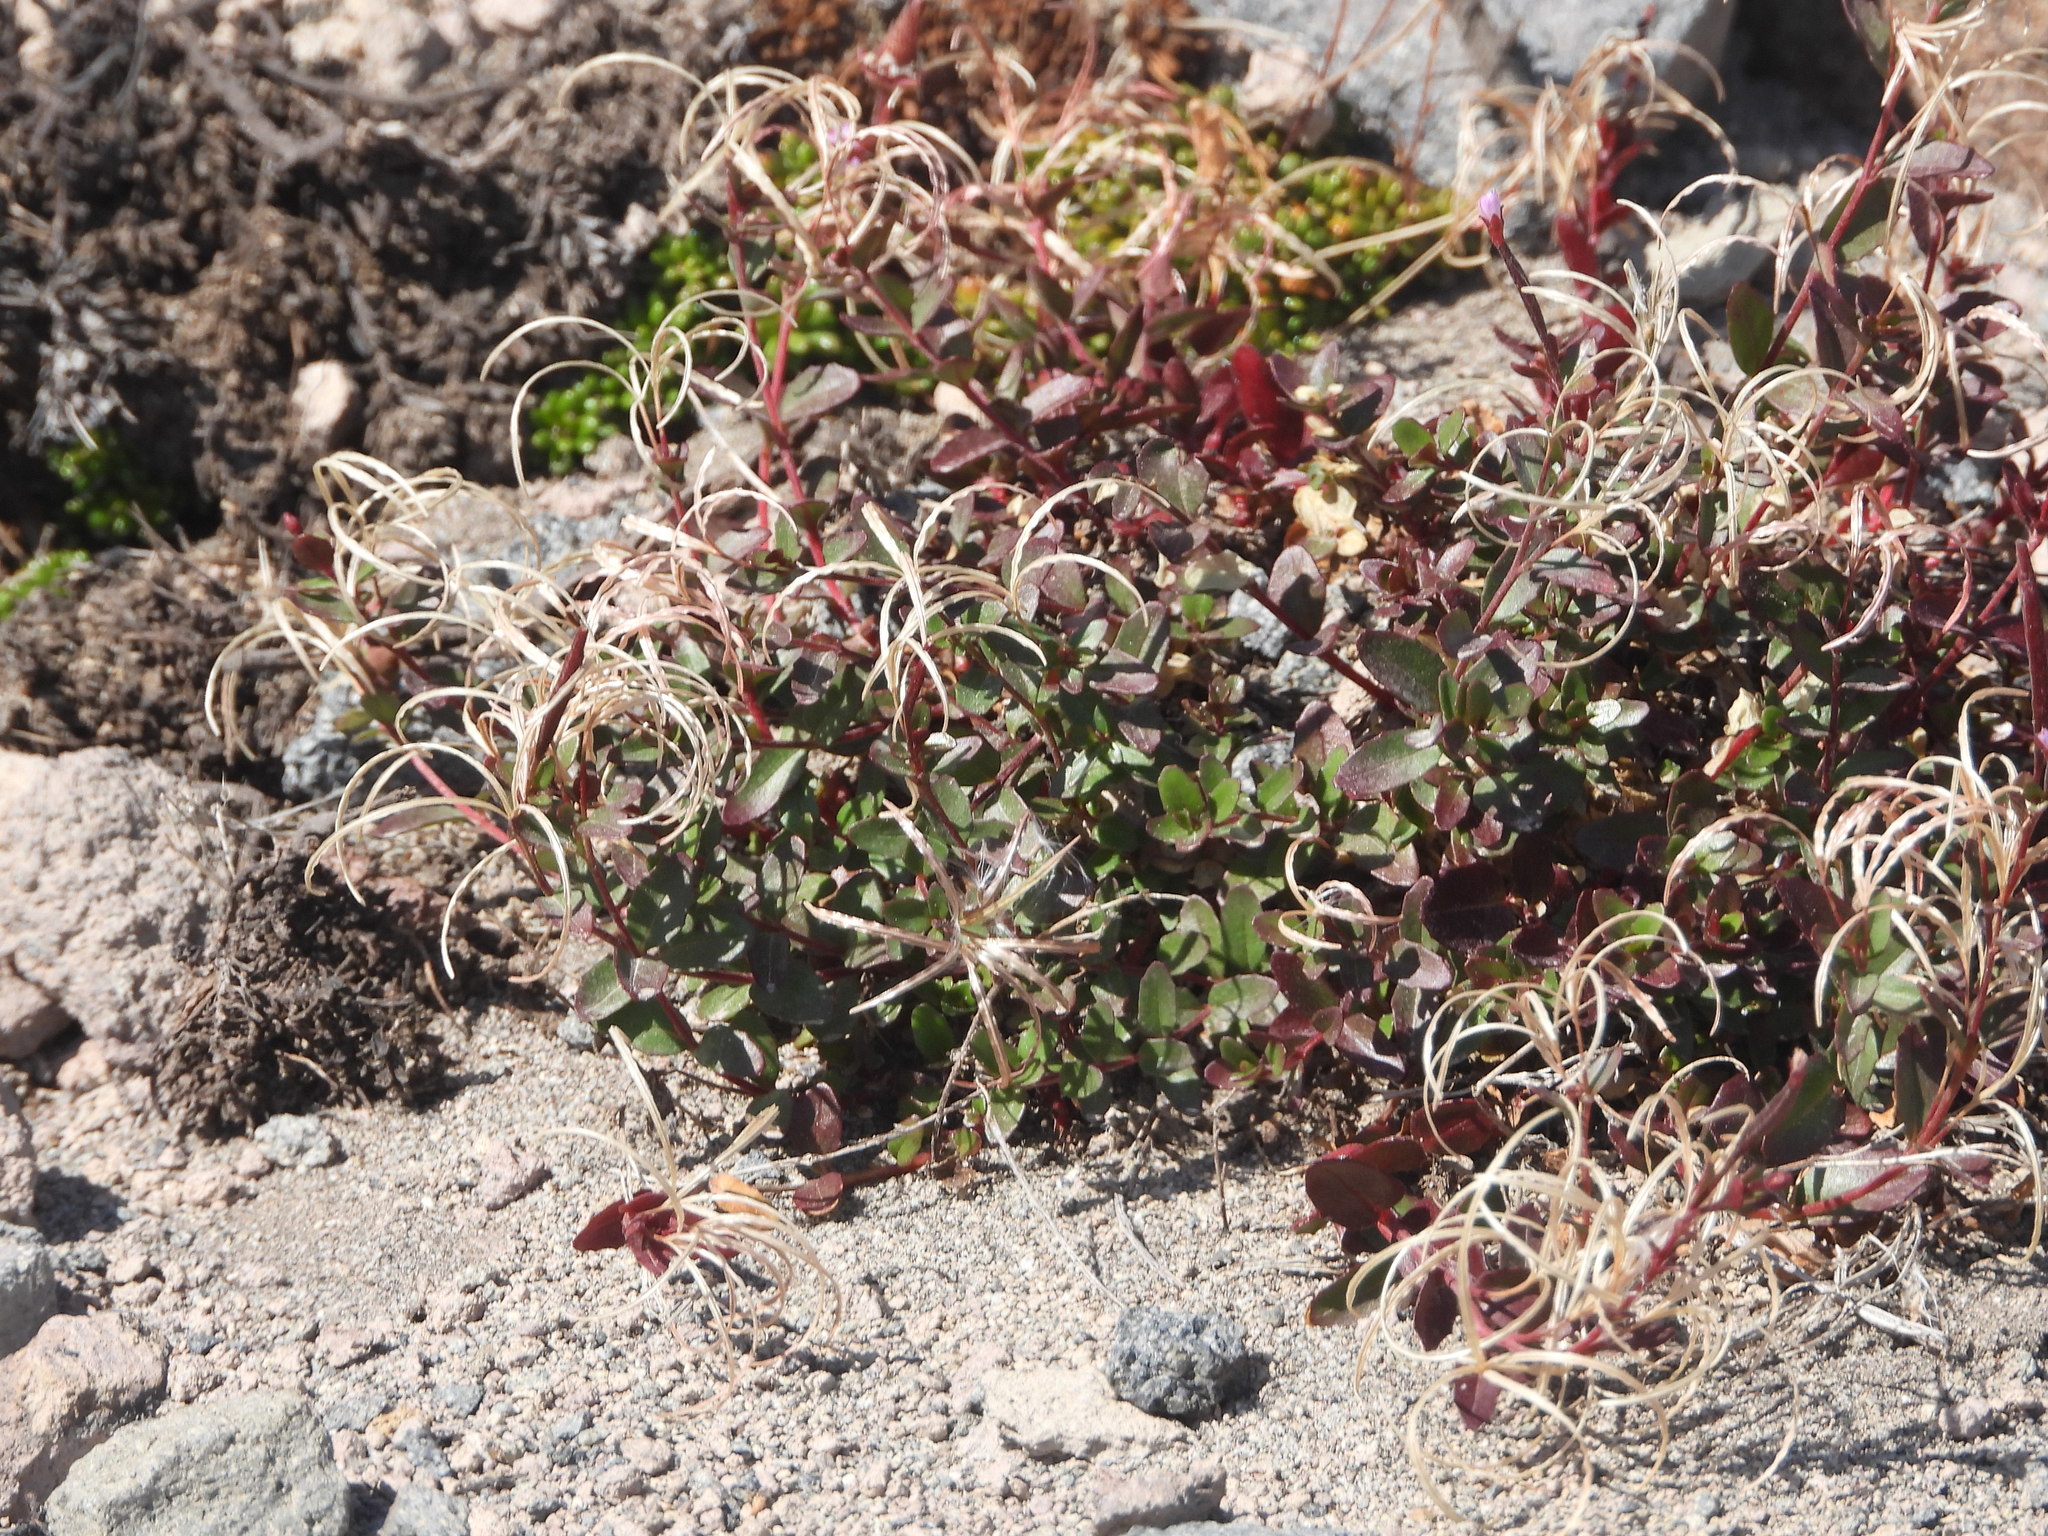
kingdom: Plantae
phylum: Tracheophyta
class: Magnoliopsida
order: Myrtales
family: Onagraceae
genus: Epilobium
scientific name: Epilobium clavatum
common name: Clavate-fruit willowherb
